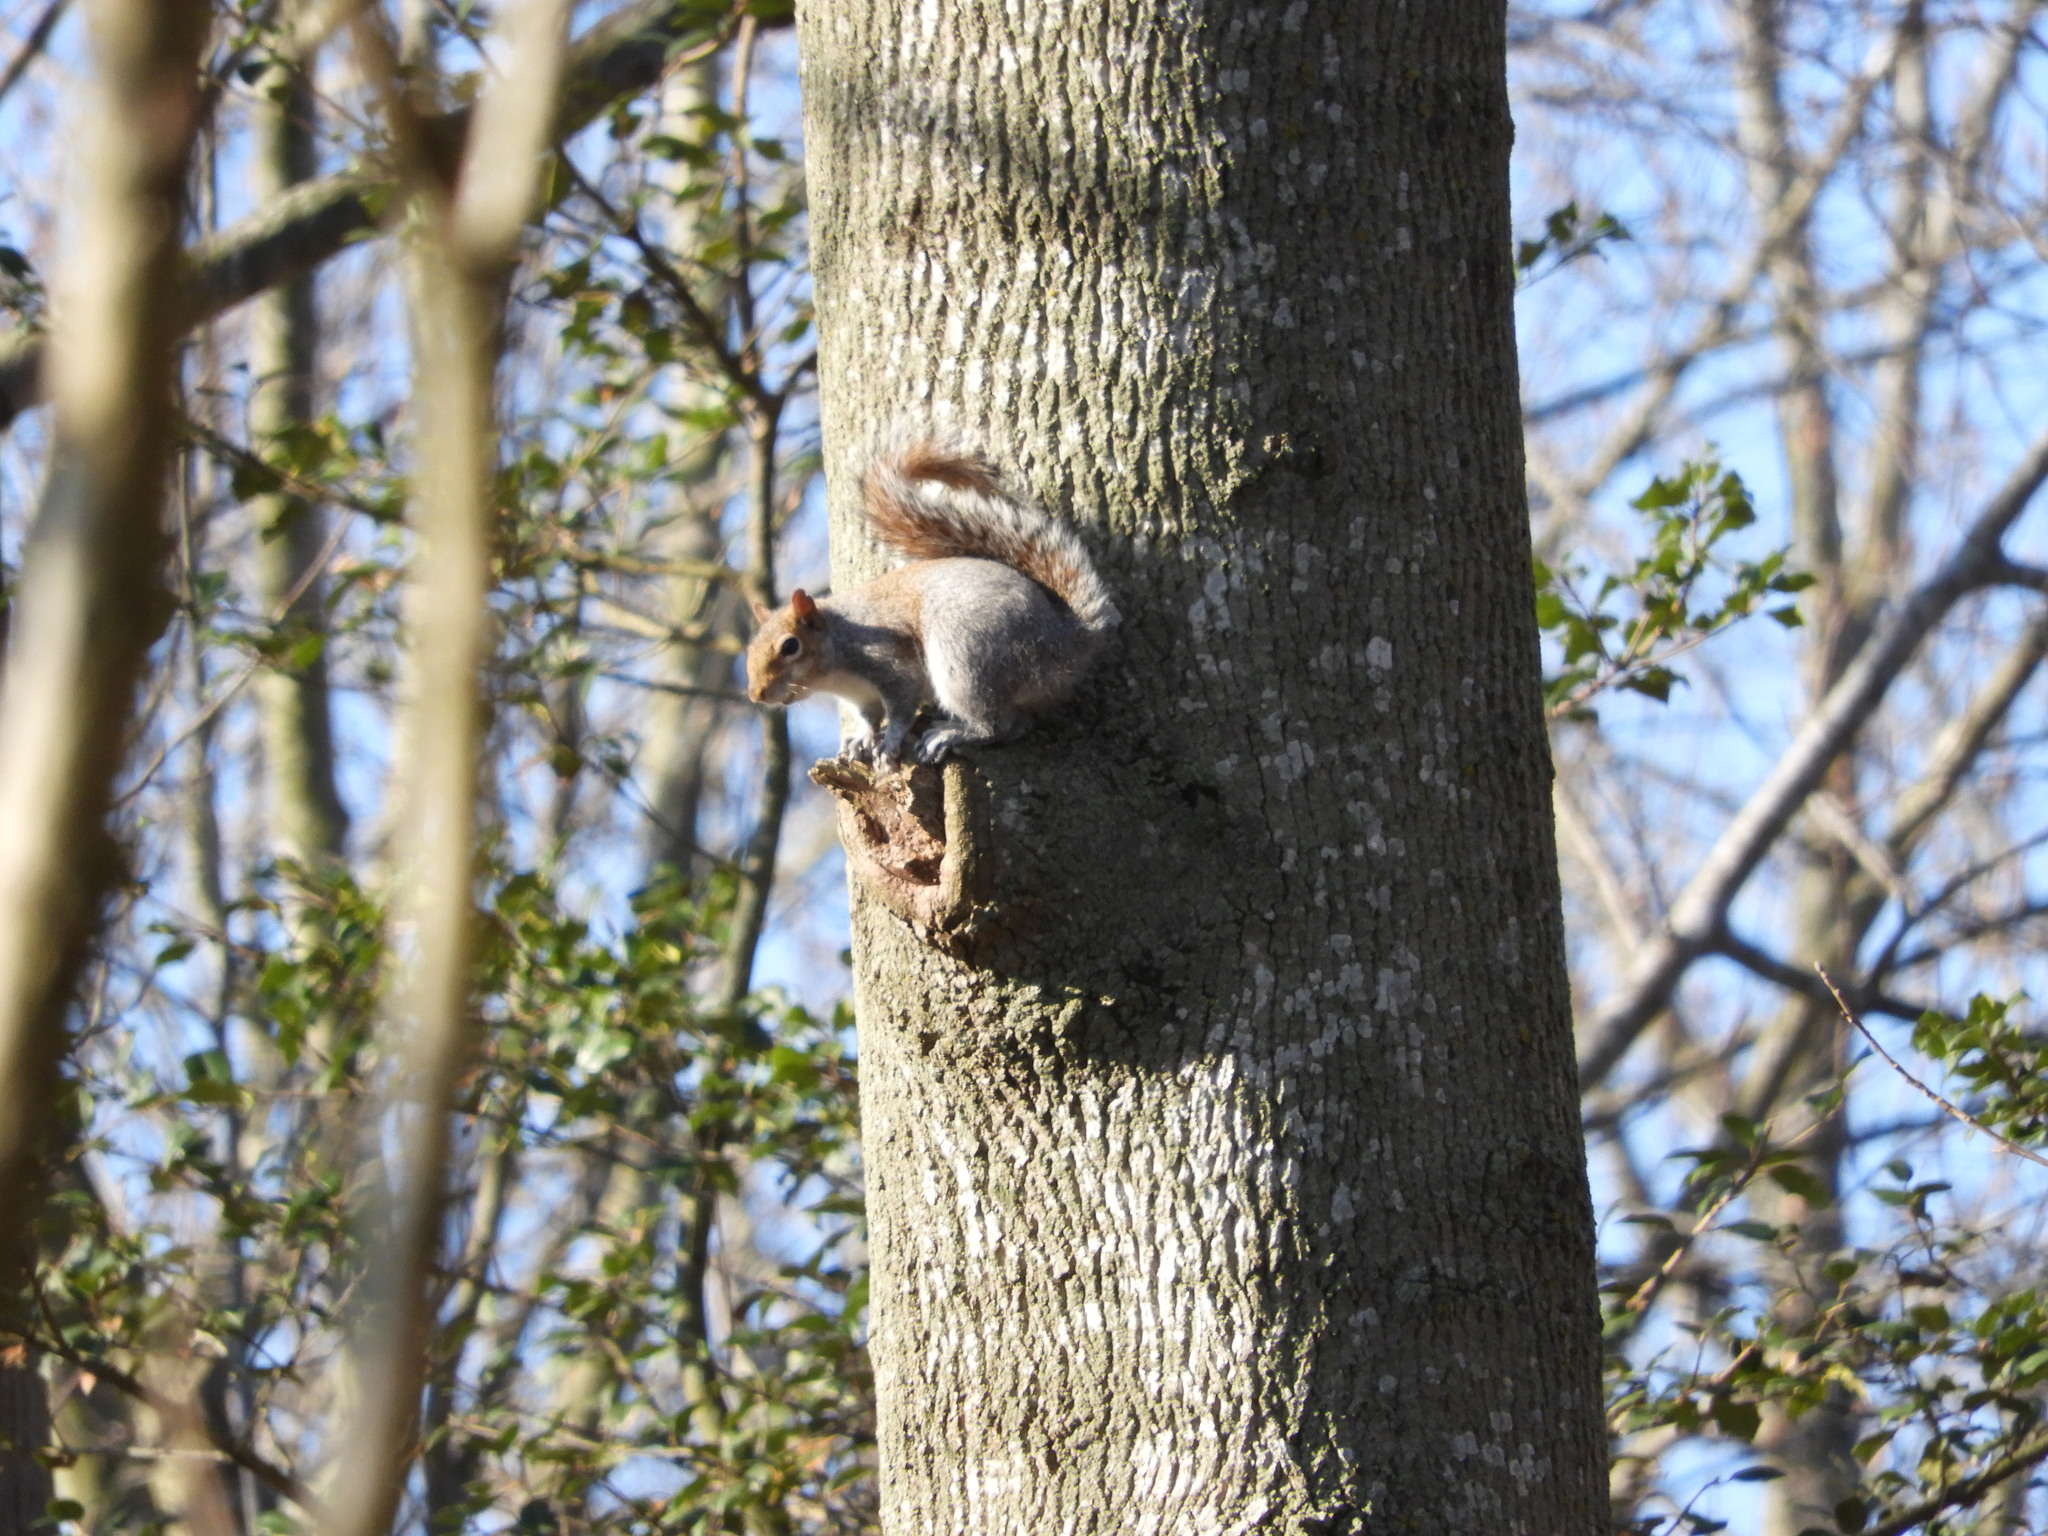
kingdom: Animalia
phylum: Chordata
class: Mammalia
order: Rodentia
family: Sciuridae
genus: Sciurus
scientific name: Sciurus carolinensis
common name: Eastern gray squirrel
